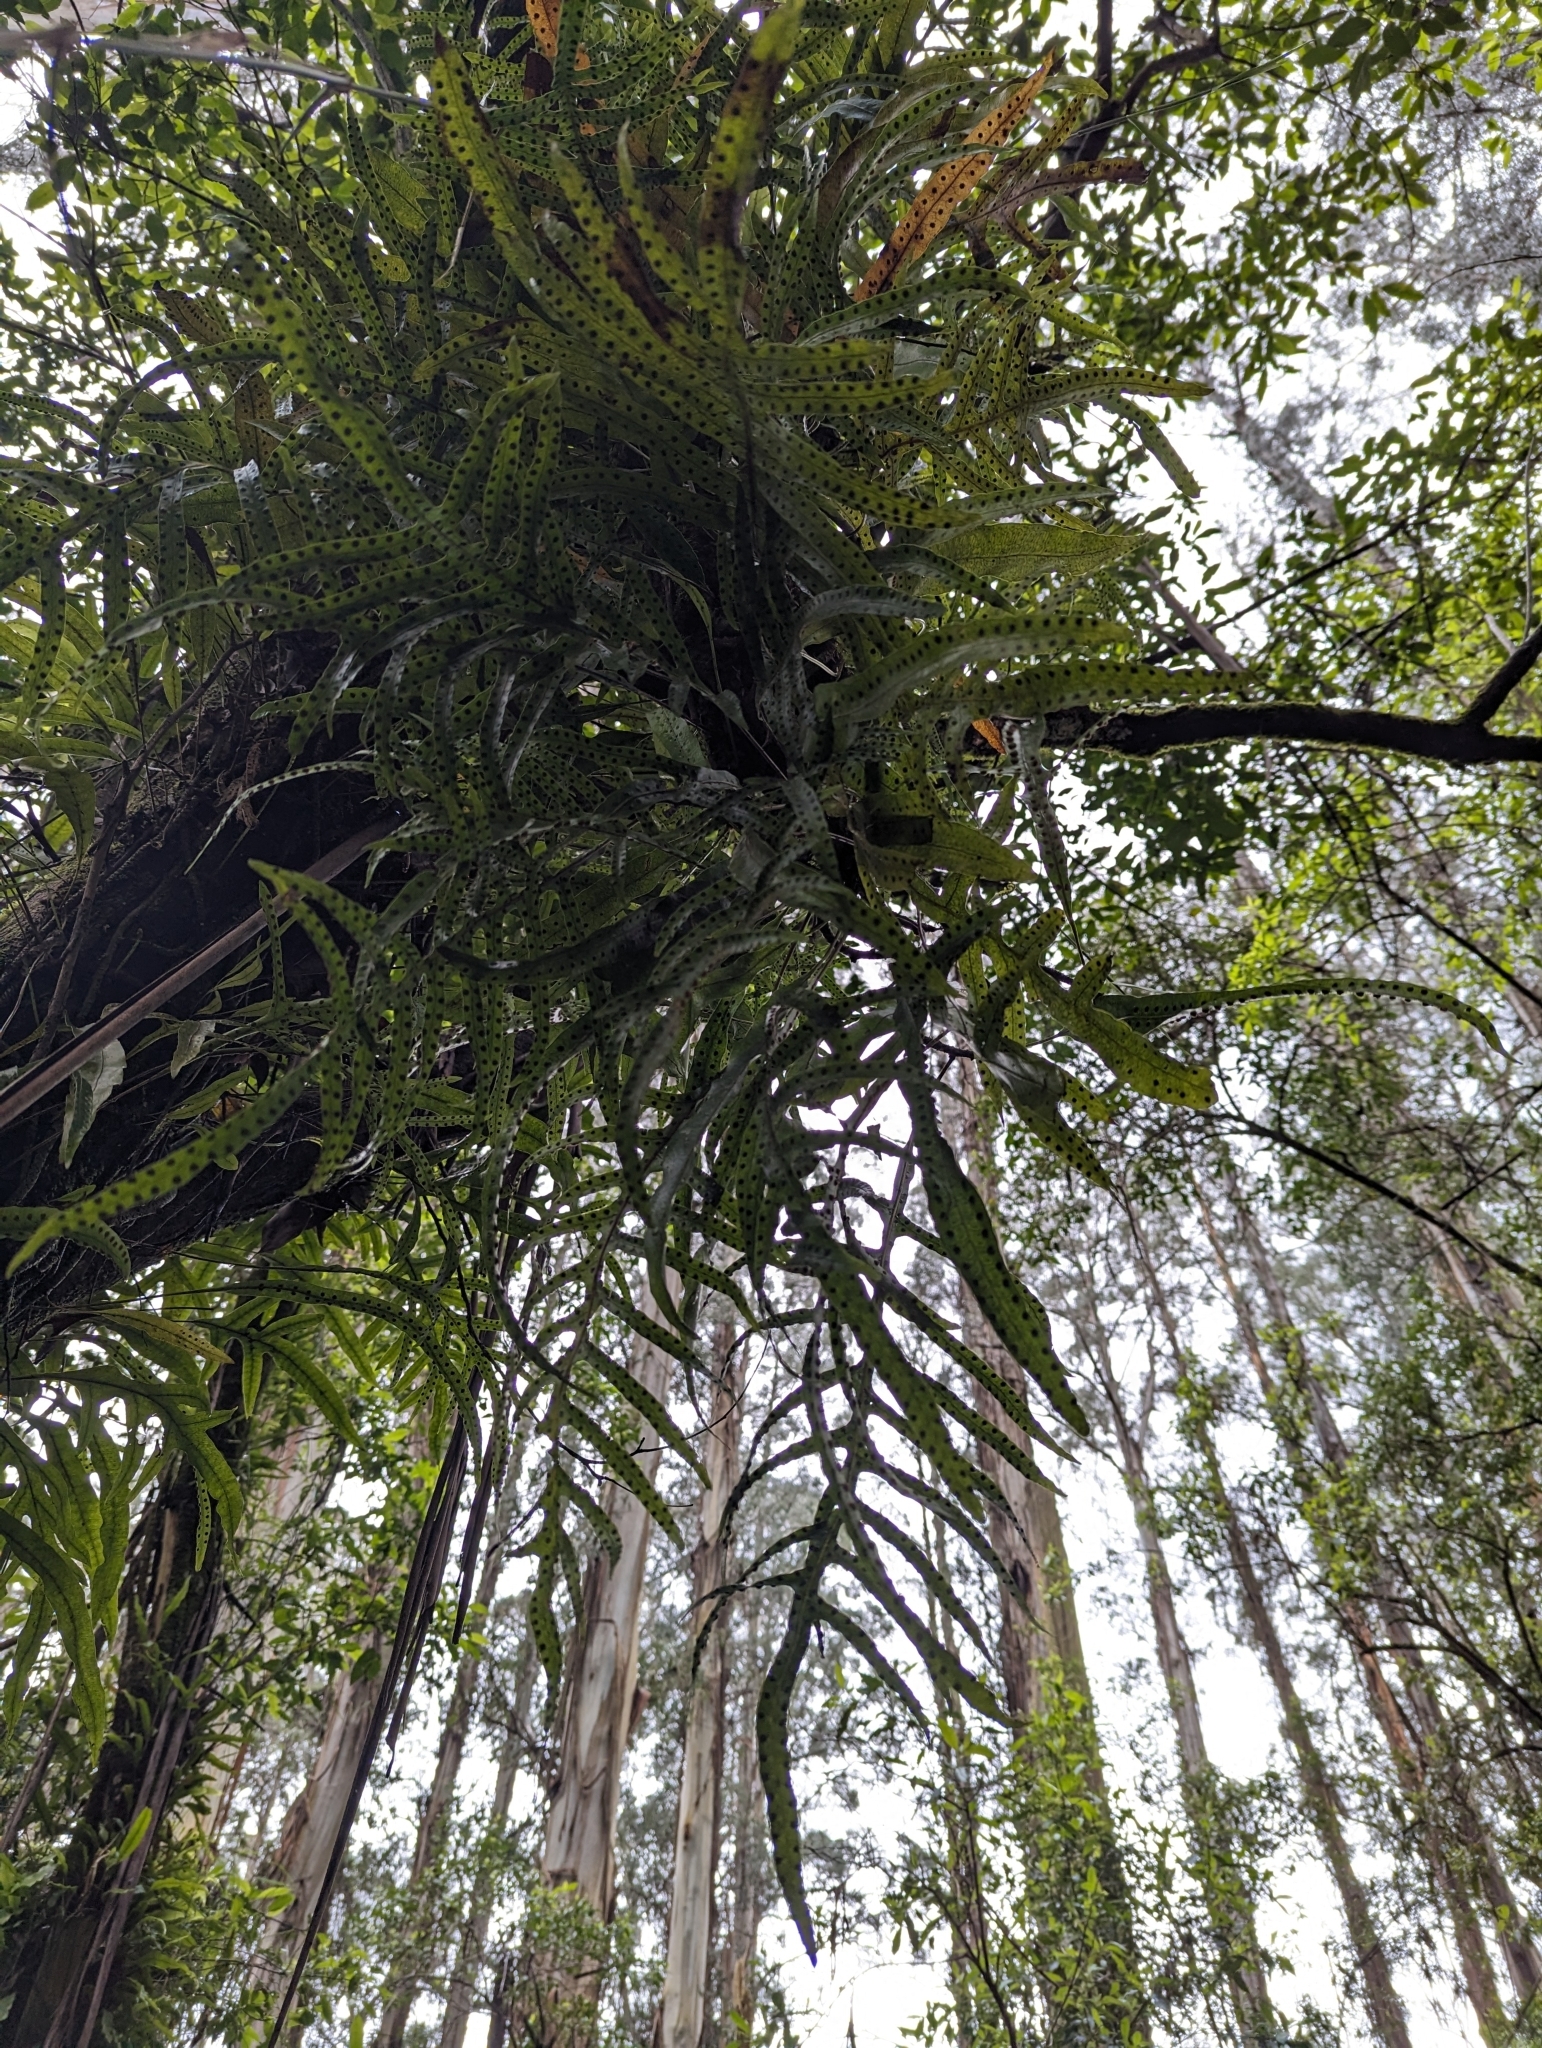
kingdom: Plantae
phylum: Tracheophyta
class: Polypodiopsida
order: Polypodiales
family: Polypodiaceae
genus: Lecanopteris
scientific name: Lecanopteris pustulata
